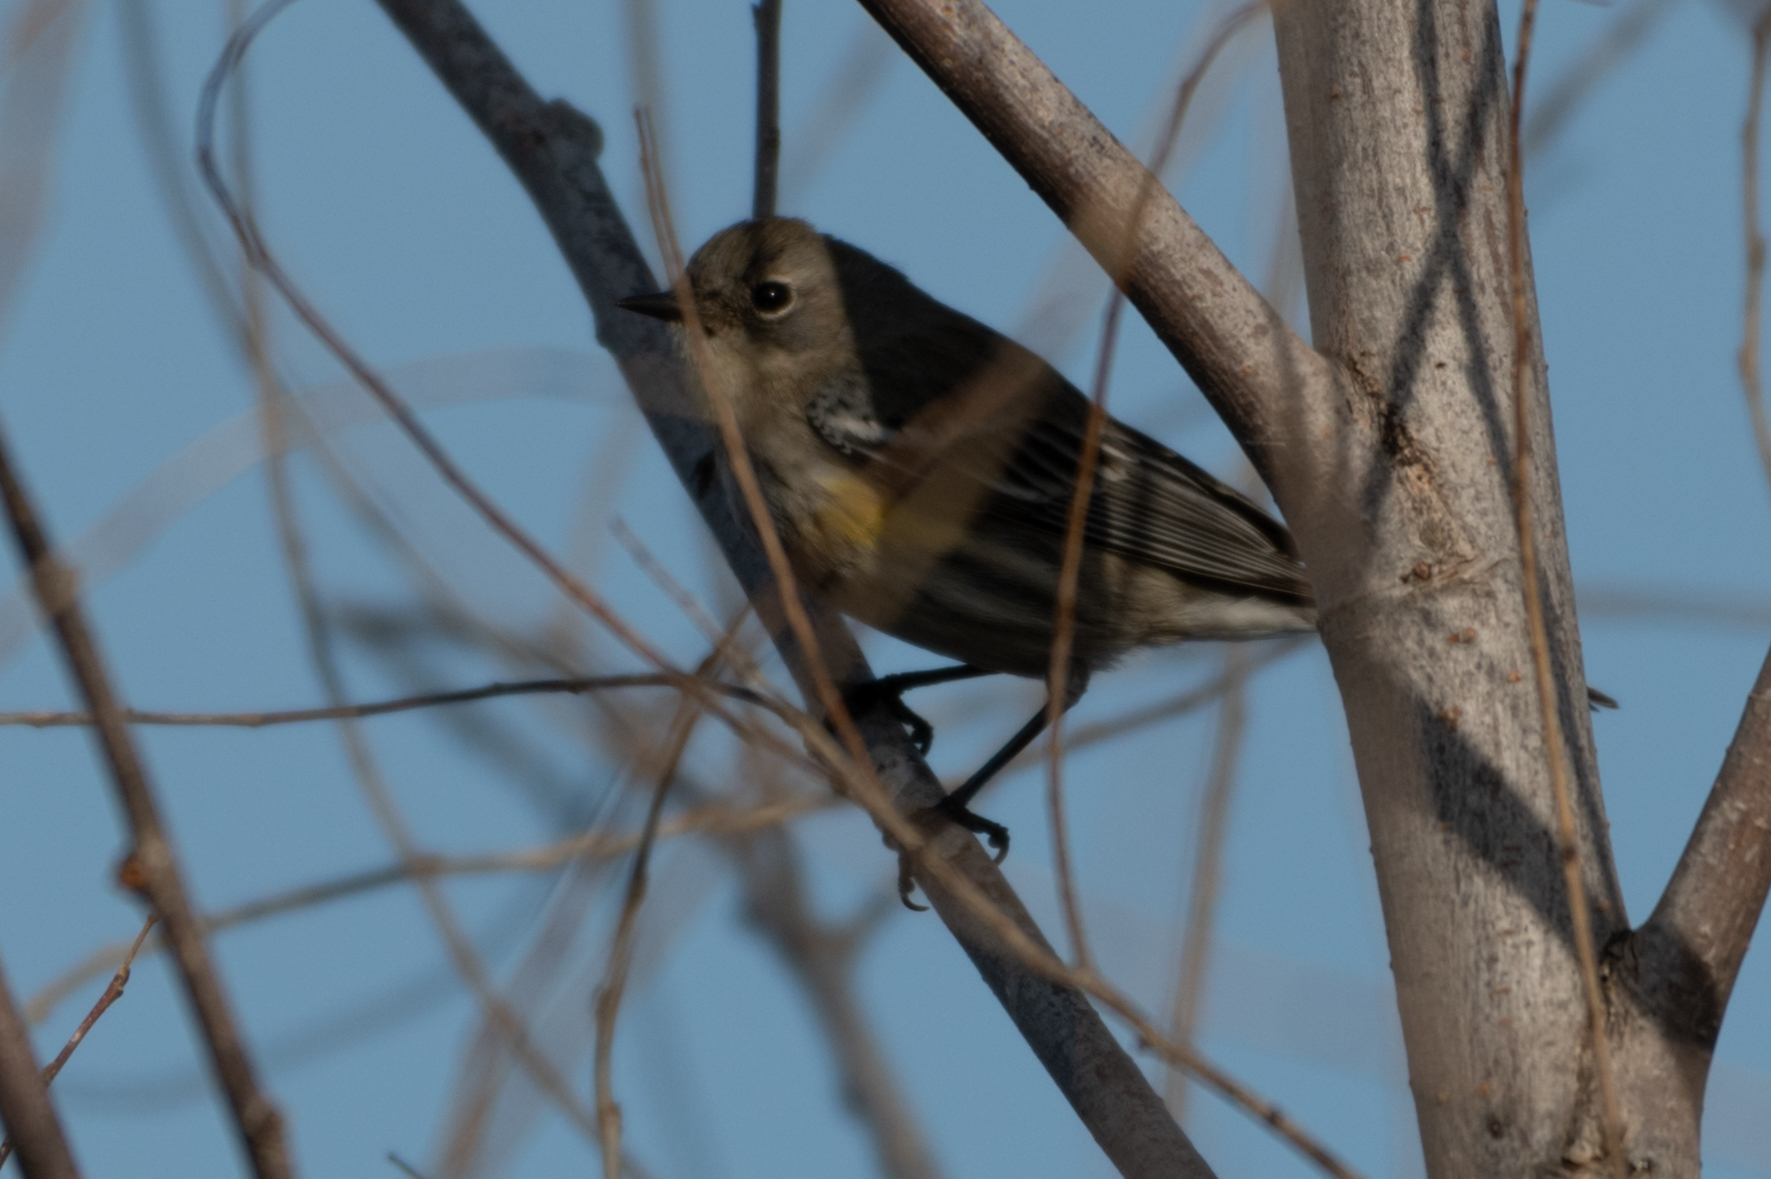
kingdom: Animalia
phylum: Chordata
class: Aves
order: Passeriformes
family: Parulidae
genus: Setophaga
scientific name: Setophaga coronata
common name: Myrtle warbler
